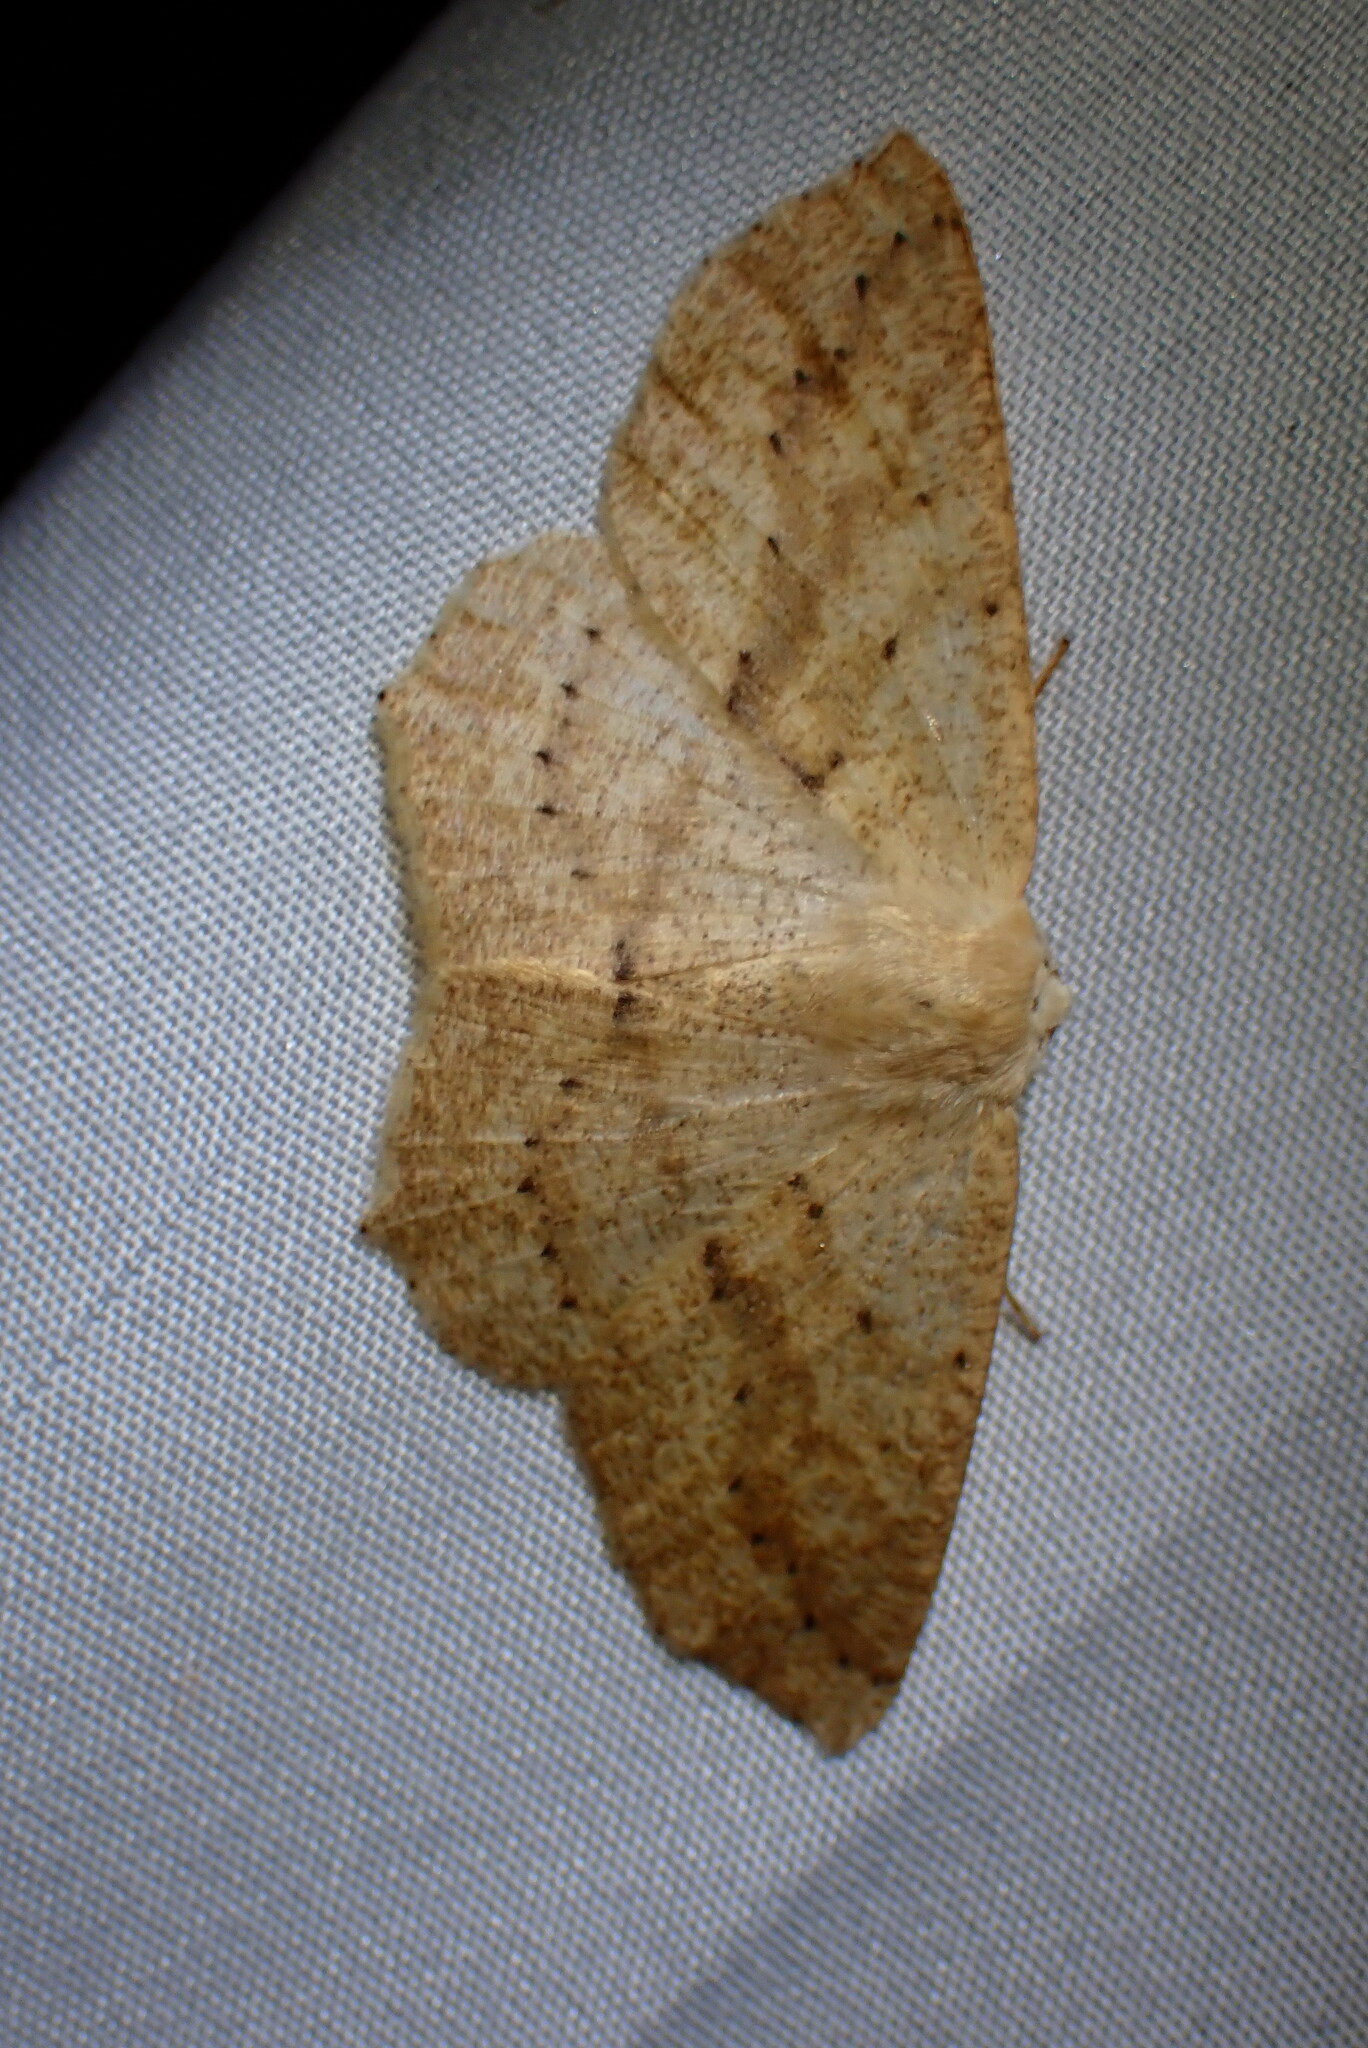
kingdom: Animalia
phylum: Arthropoda
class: Insecta
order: Lepidoptera
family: Geometridae
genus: Sabulodes
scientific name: Sabulodes aegrotata
